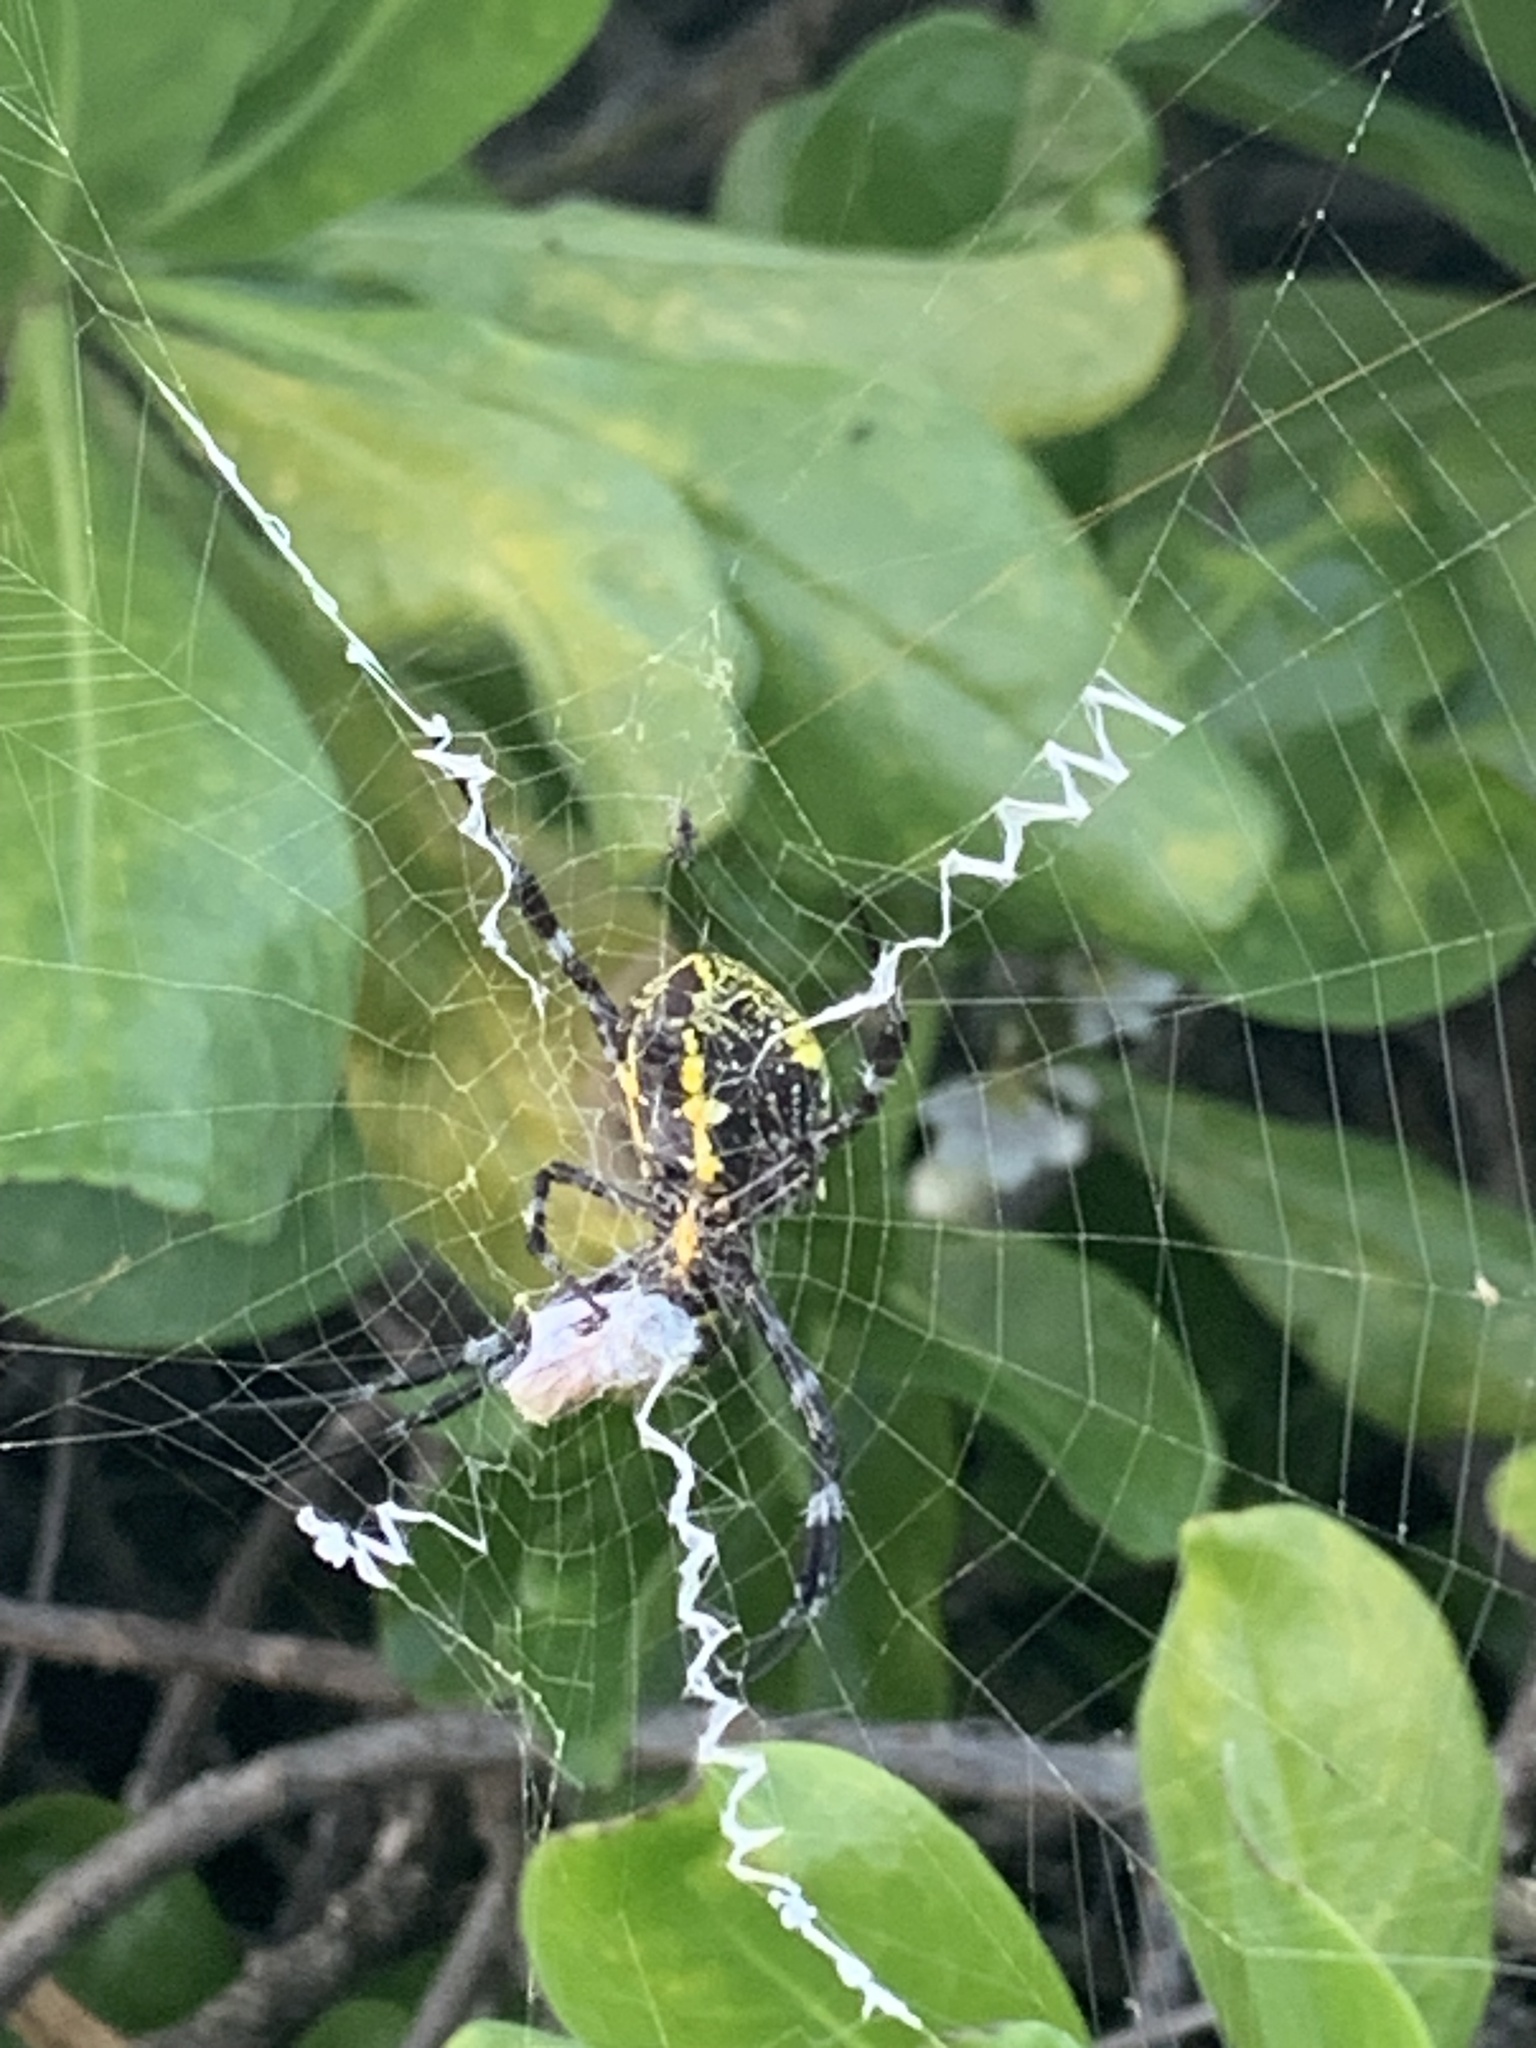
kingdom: Animalia
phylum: Arthropoda
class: Arachnida
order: Araneae
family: Araneidae
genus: Argiope
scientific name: Argiope appensa
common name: Garden spider
